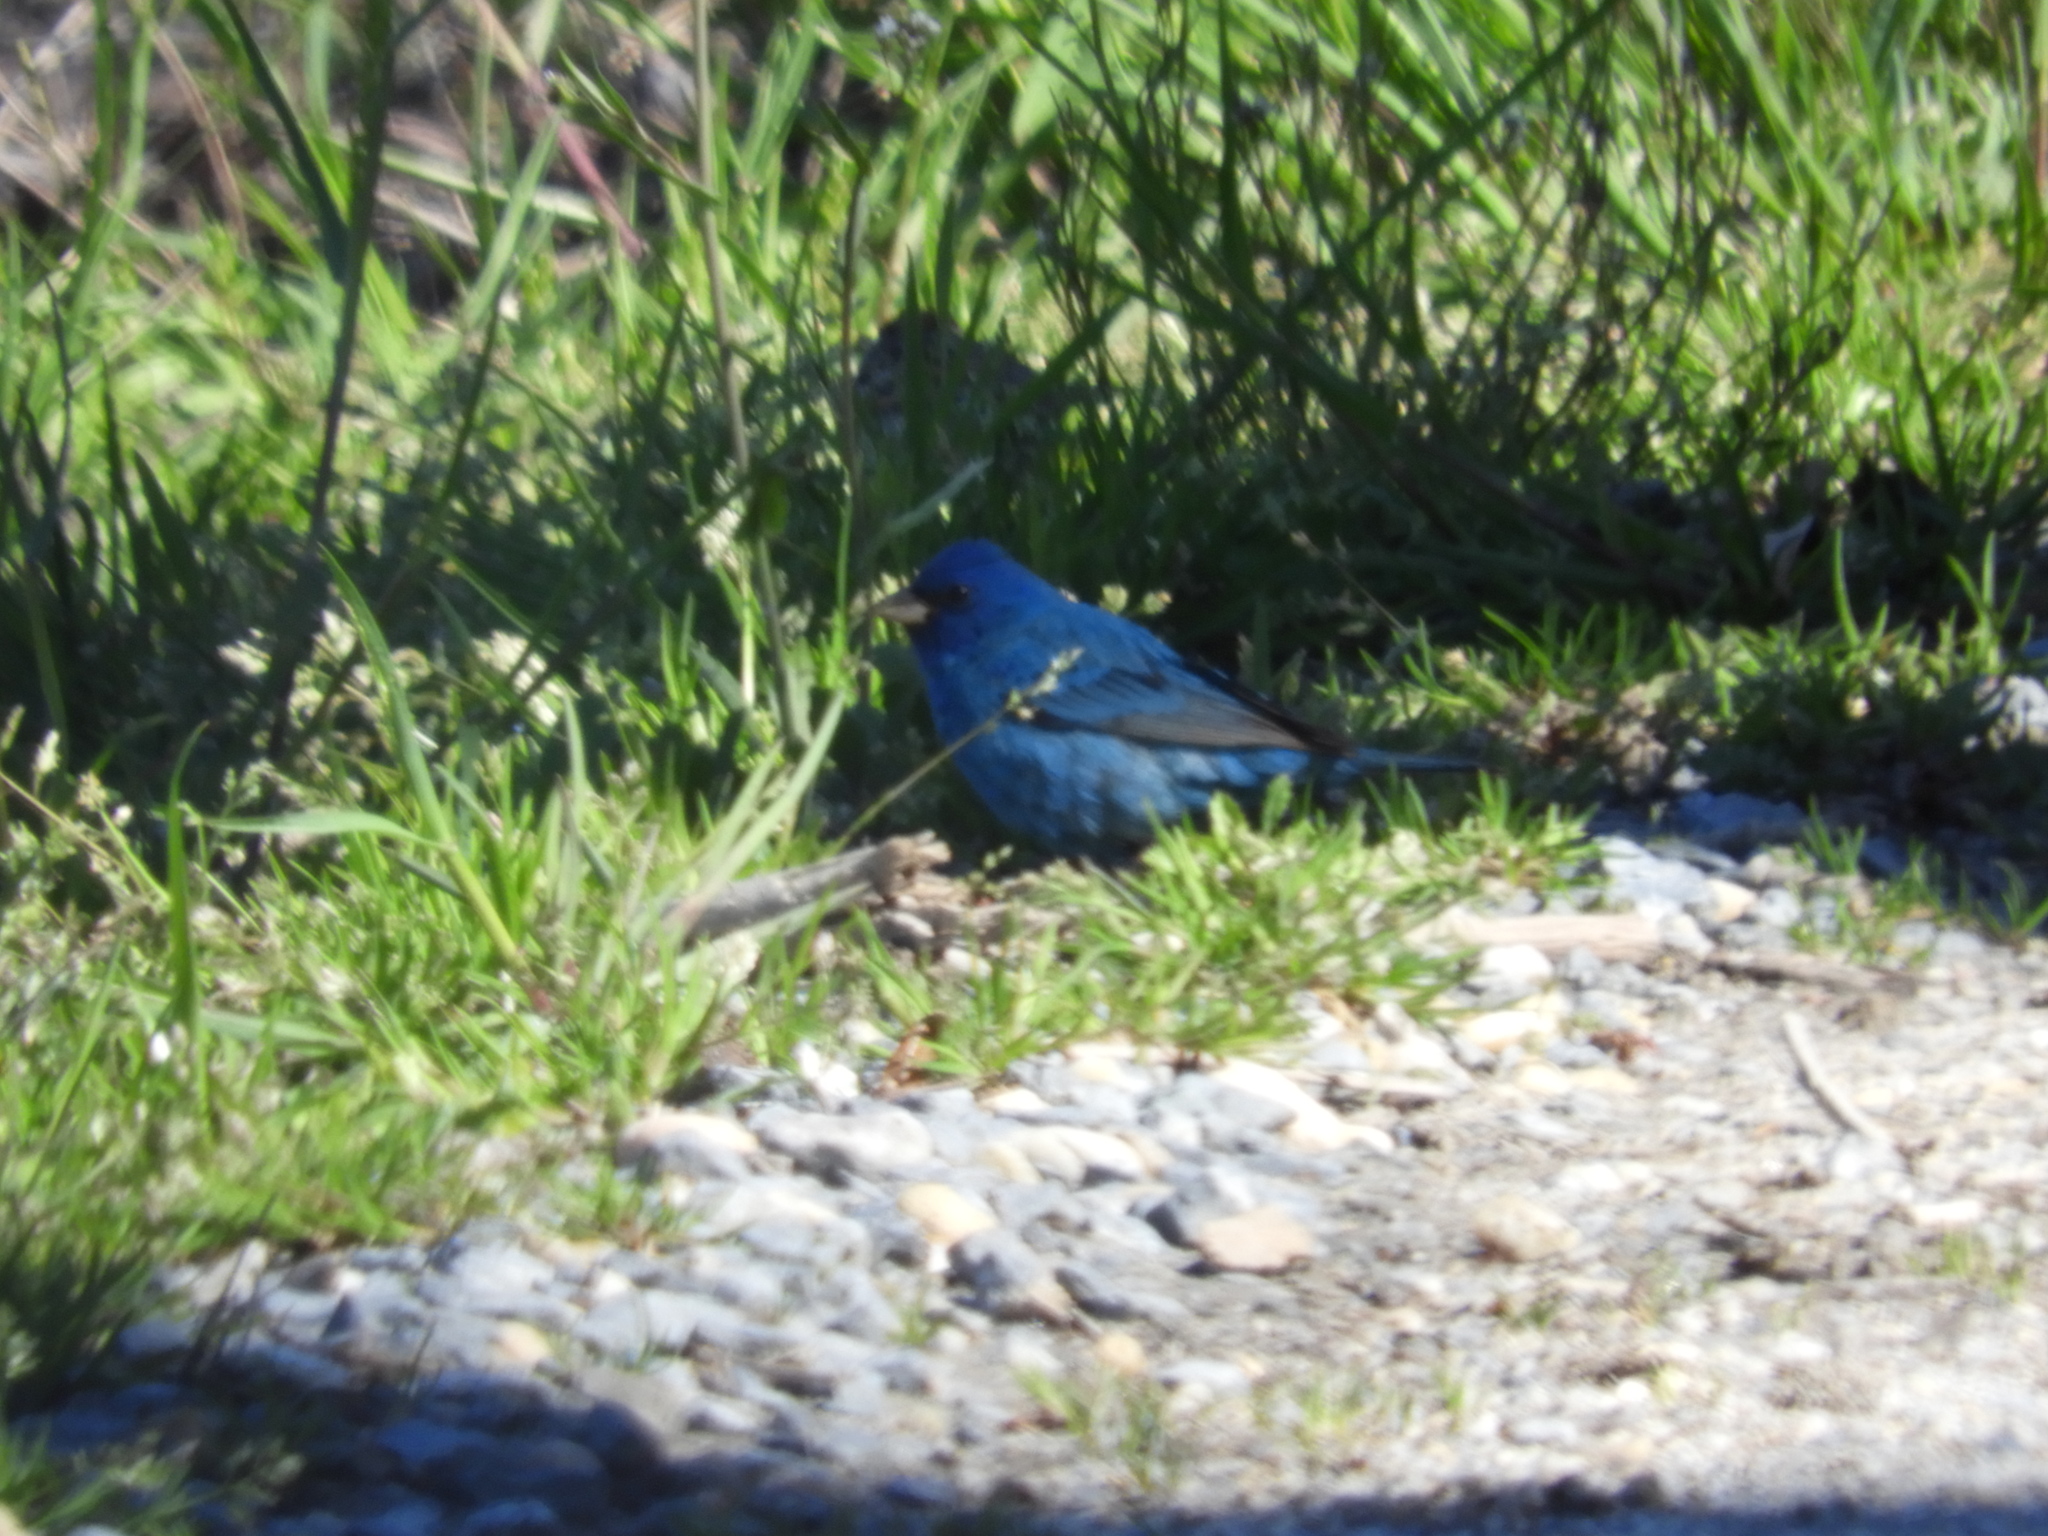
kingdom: Animalia
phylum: Chordata
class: Aves
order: Passeriformes
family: Cardinalidae
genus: Passerina
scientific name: Passerina cyanea
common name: Indigo bunting
